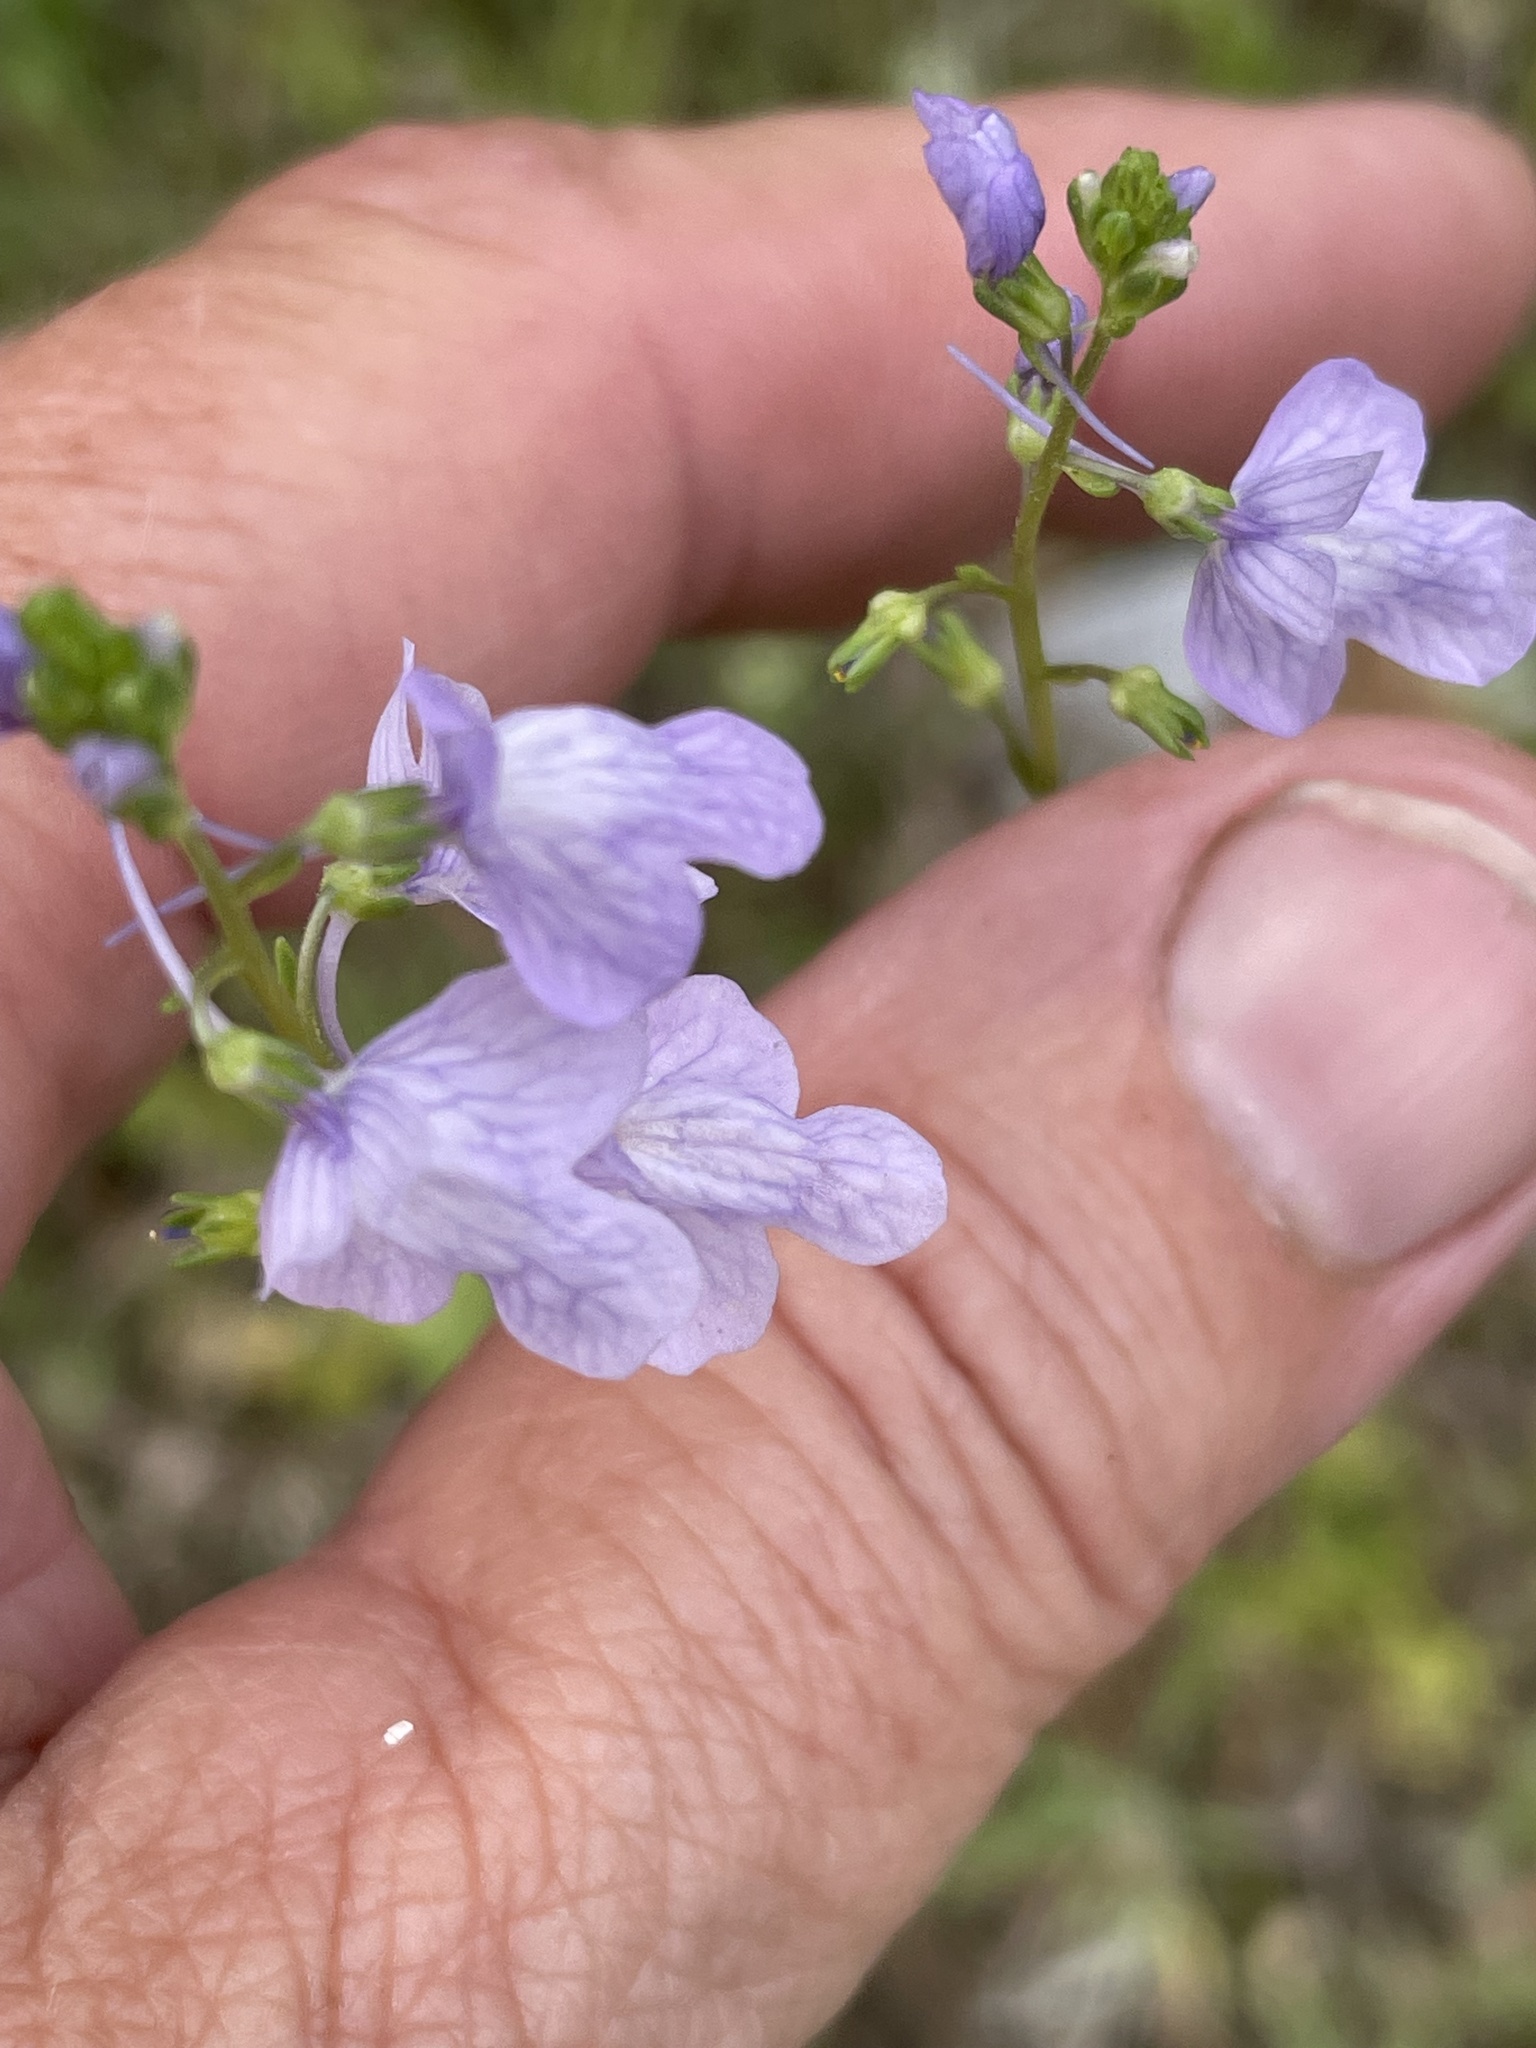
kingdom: Plantae
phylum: Tracheophyta
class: Magnoliopsida
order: Lamiales
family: Plantaginaceae
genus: Nuttallanthus
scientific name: Nuttallanthus texanus
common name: Texas toadflax
